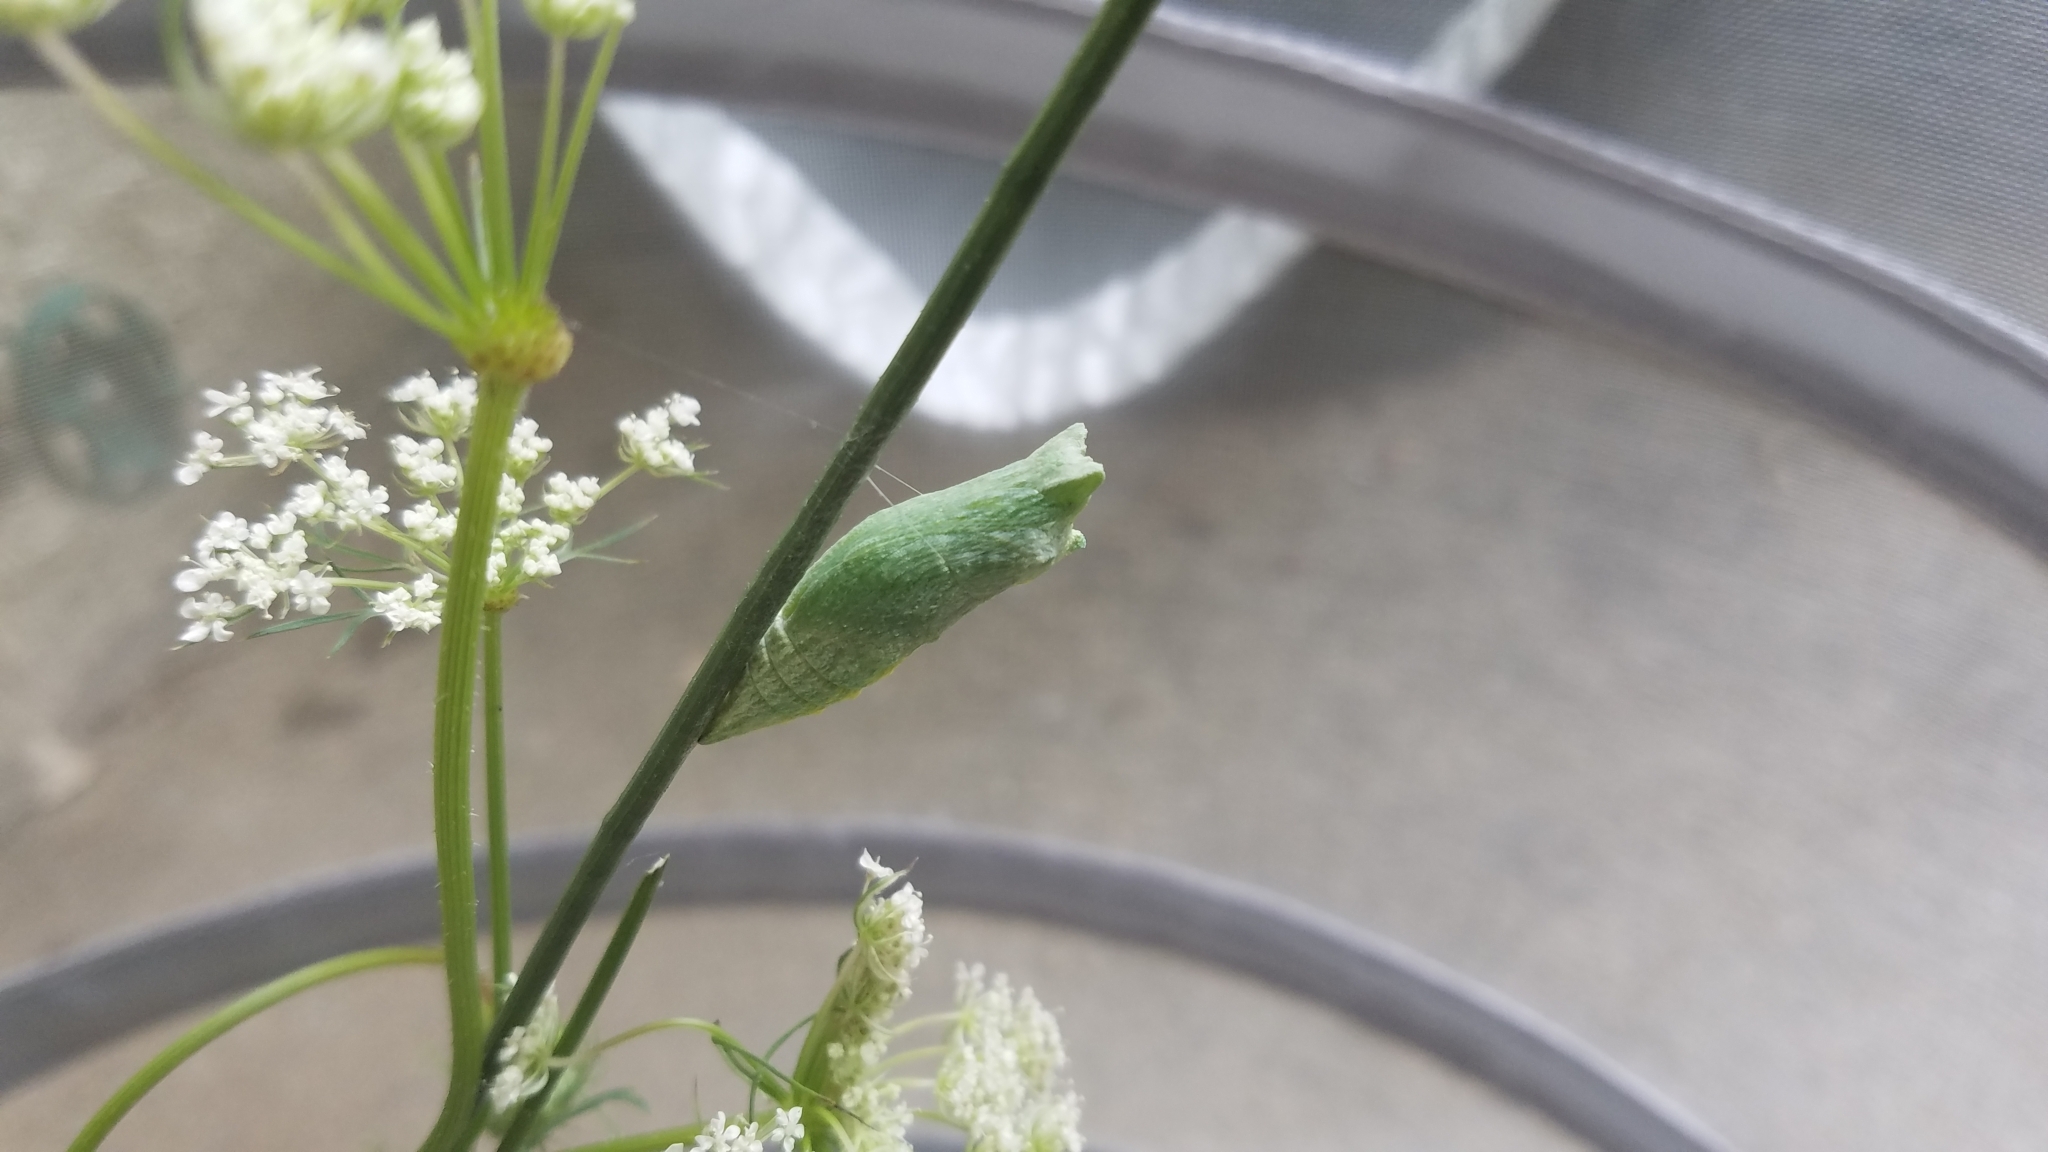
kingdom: Animalia
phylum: Arthropoda
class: Insecta
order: Lepidoptera
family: Papilionidae
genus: Papilio
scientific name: Papilio polyxenes
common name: Black swallowtail
